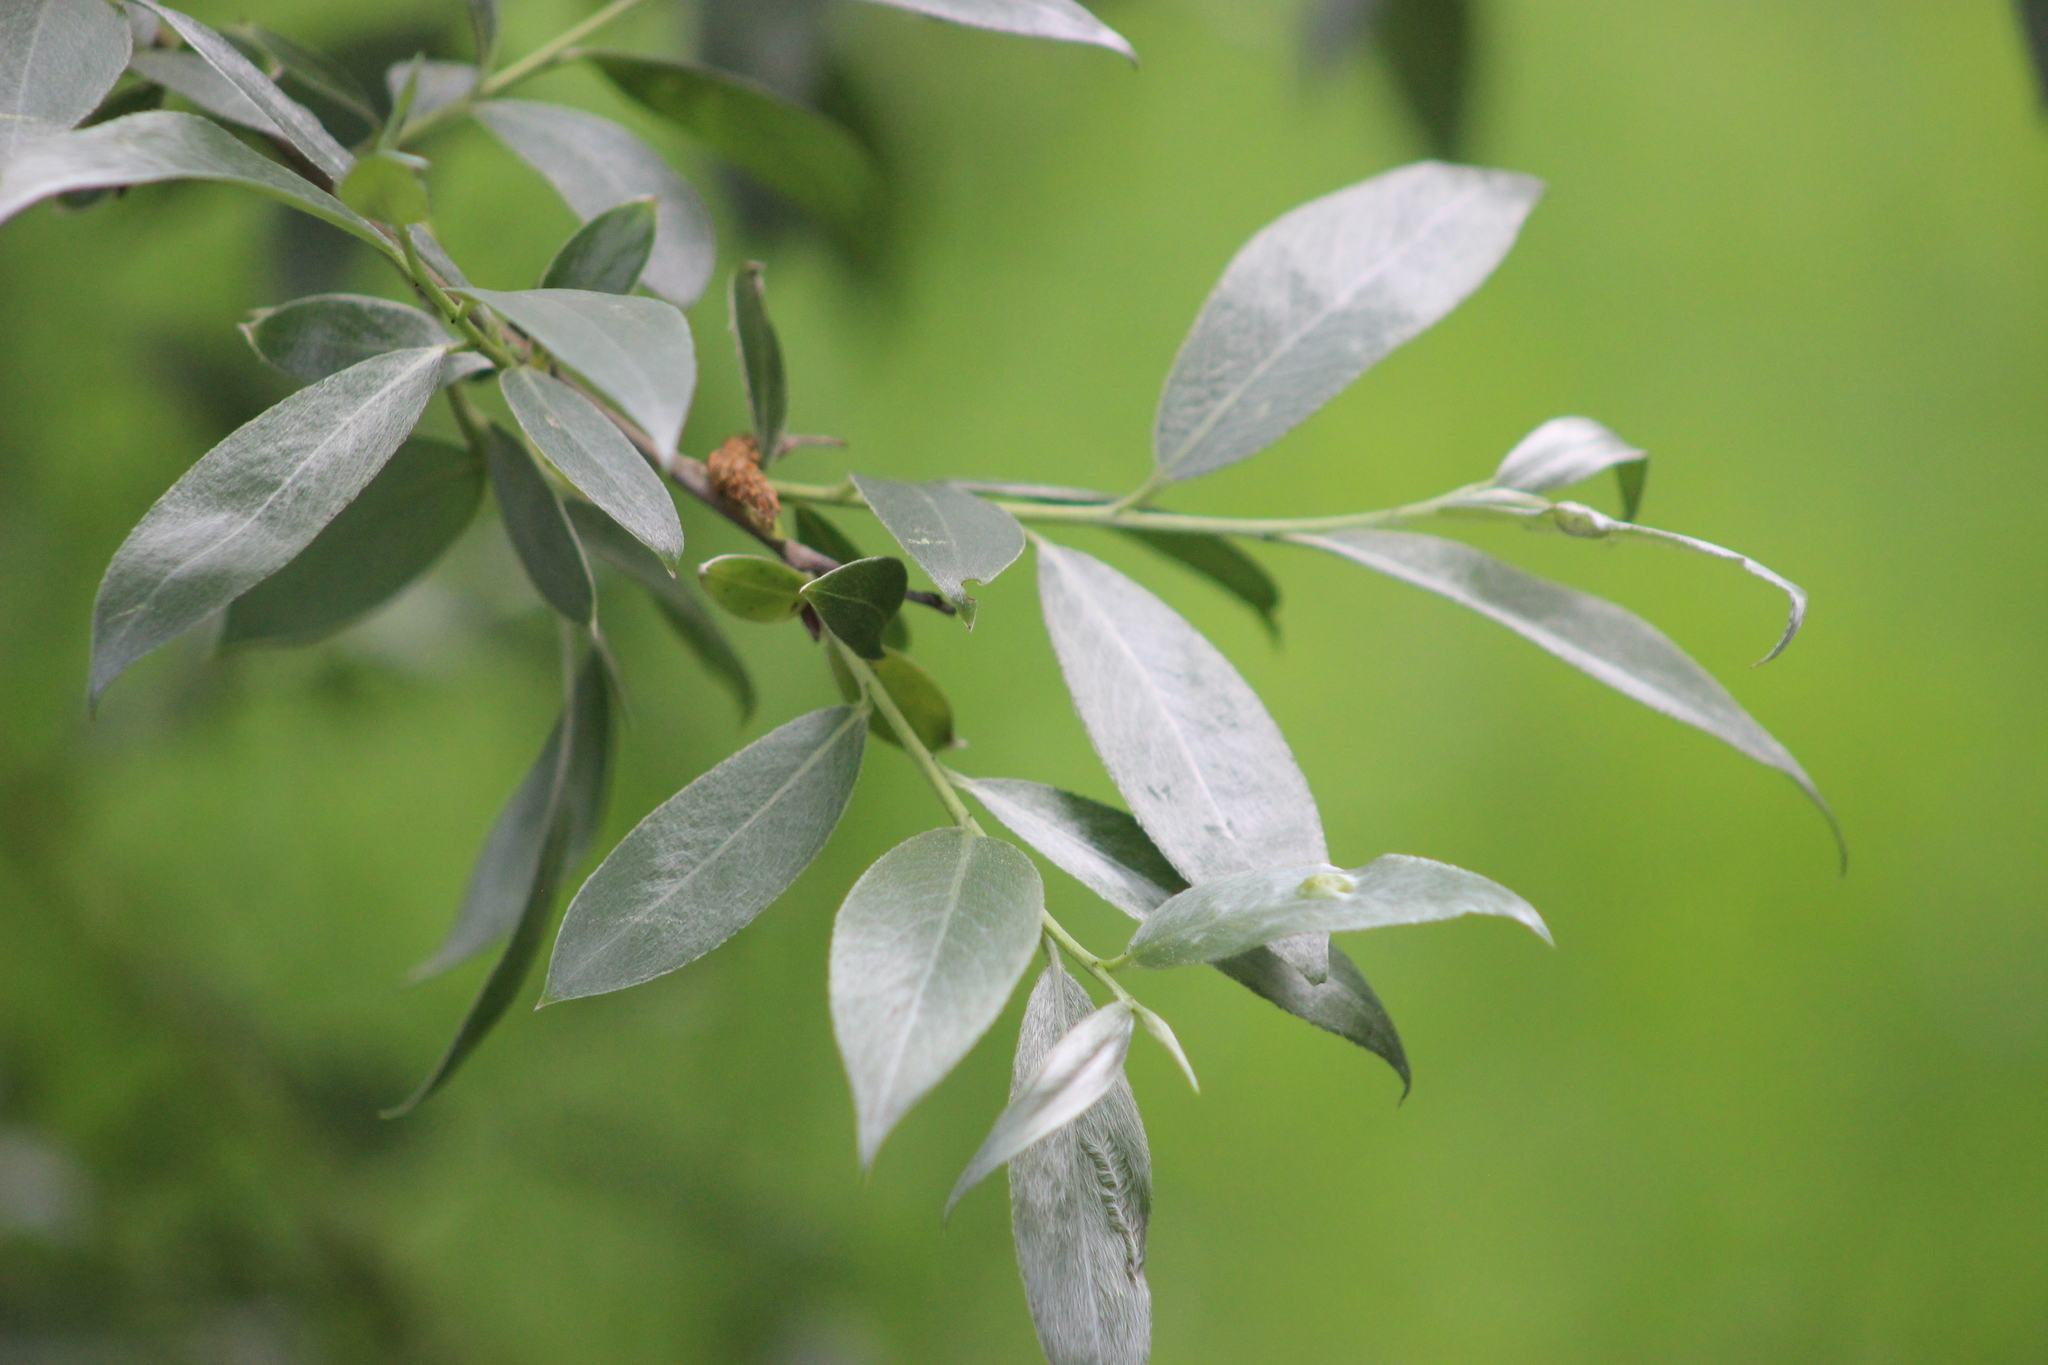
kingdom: Plantae
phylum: Tracheophyta
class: Magnoliopsida
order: Malpighiales
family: Salicaceae
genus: Salix
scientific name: Salix alba
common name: White willow
